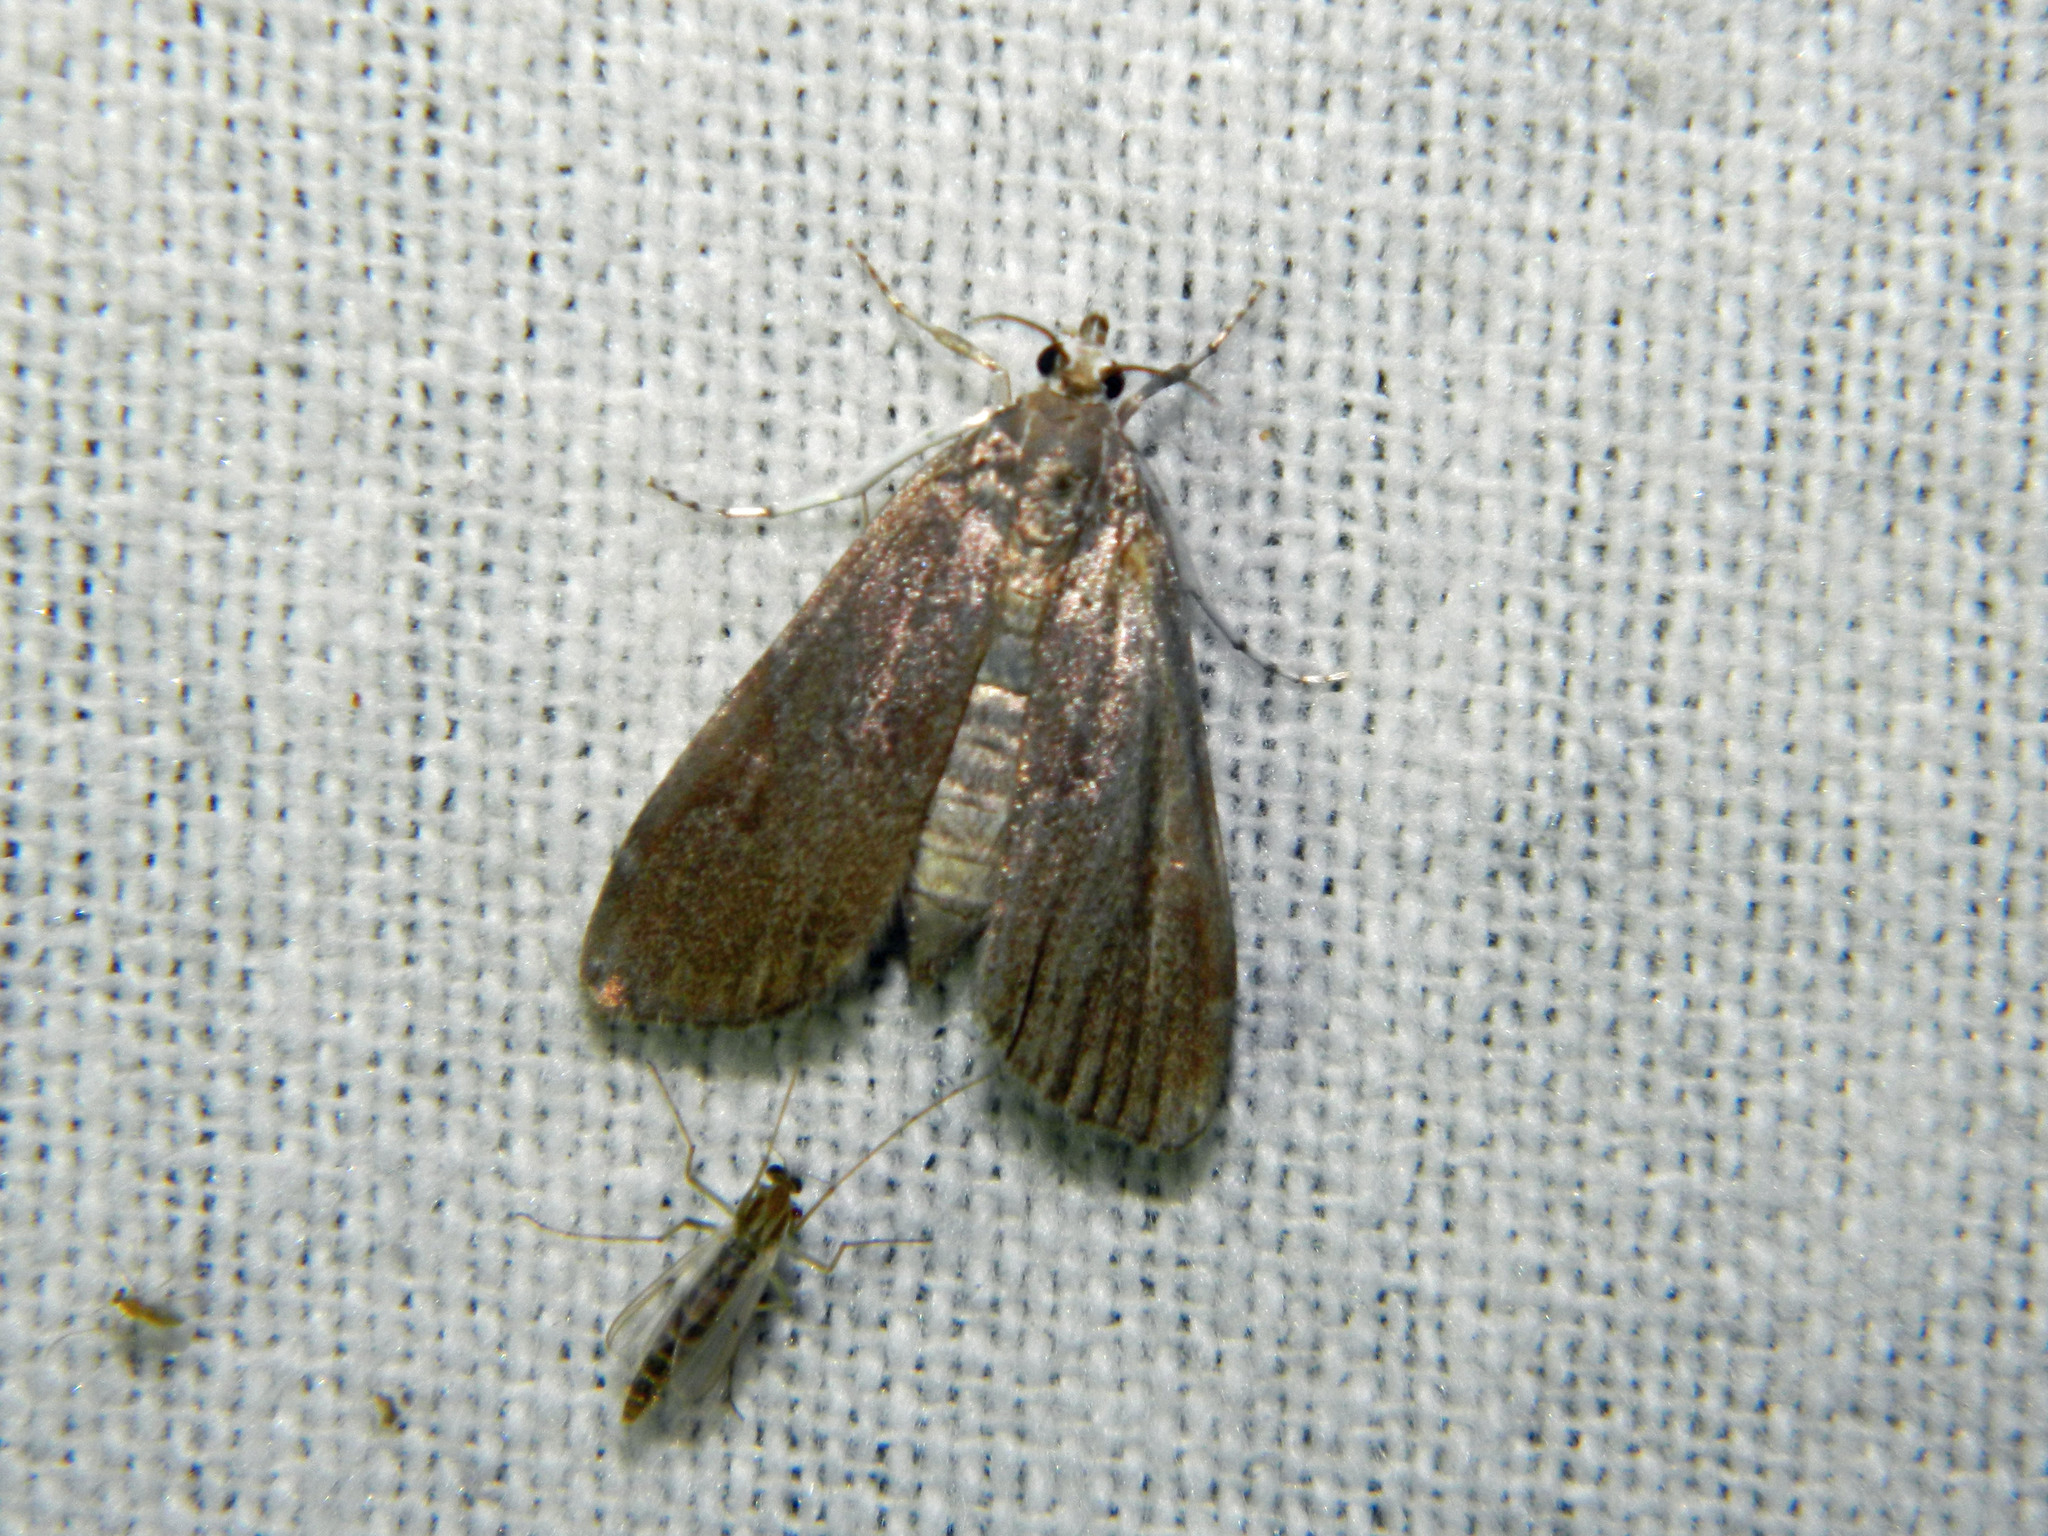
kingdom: Animalia
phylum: Arthropoda
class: Insecta
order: Lepidoptera
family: Crambidae
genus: Elophila
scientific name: Elophila gyralis
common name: Waterlily borer moth
